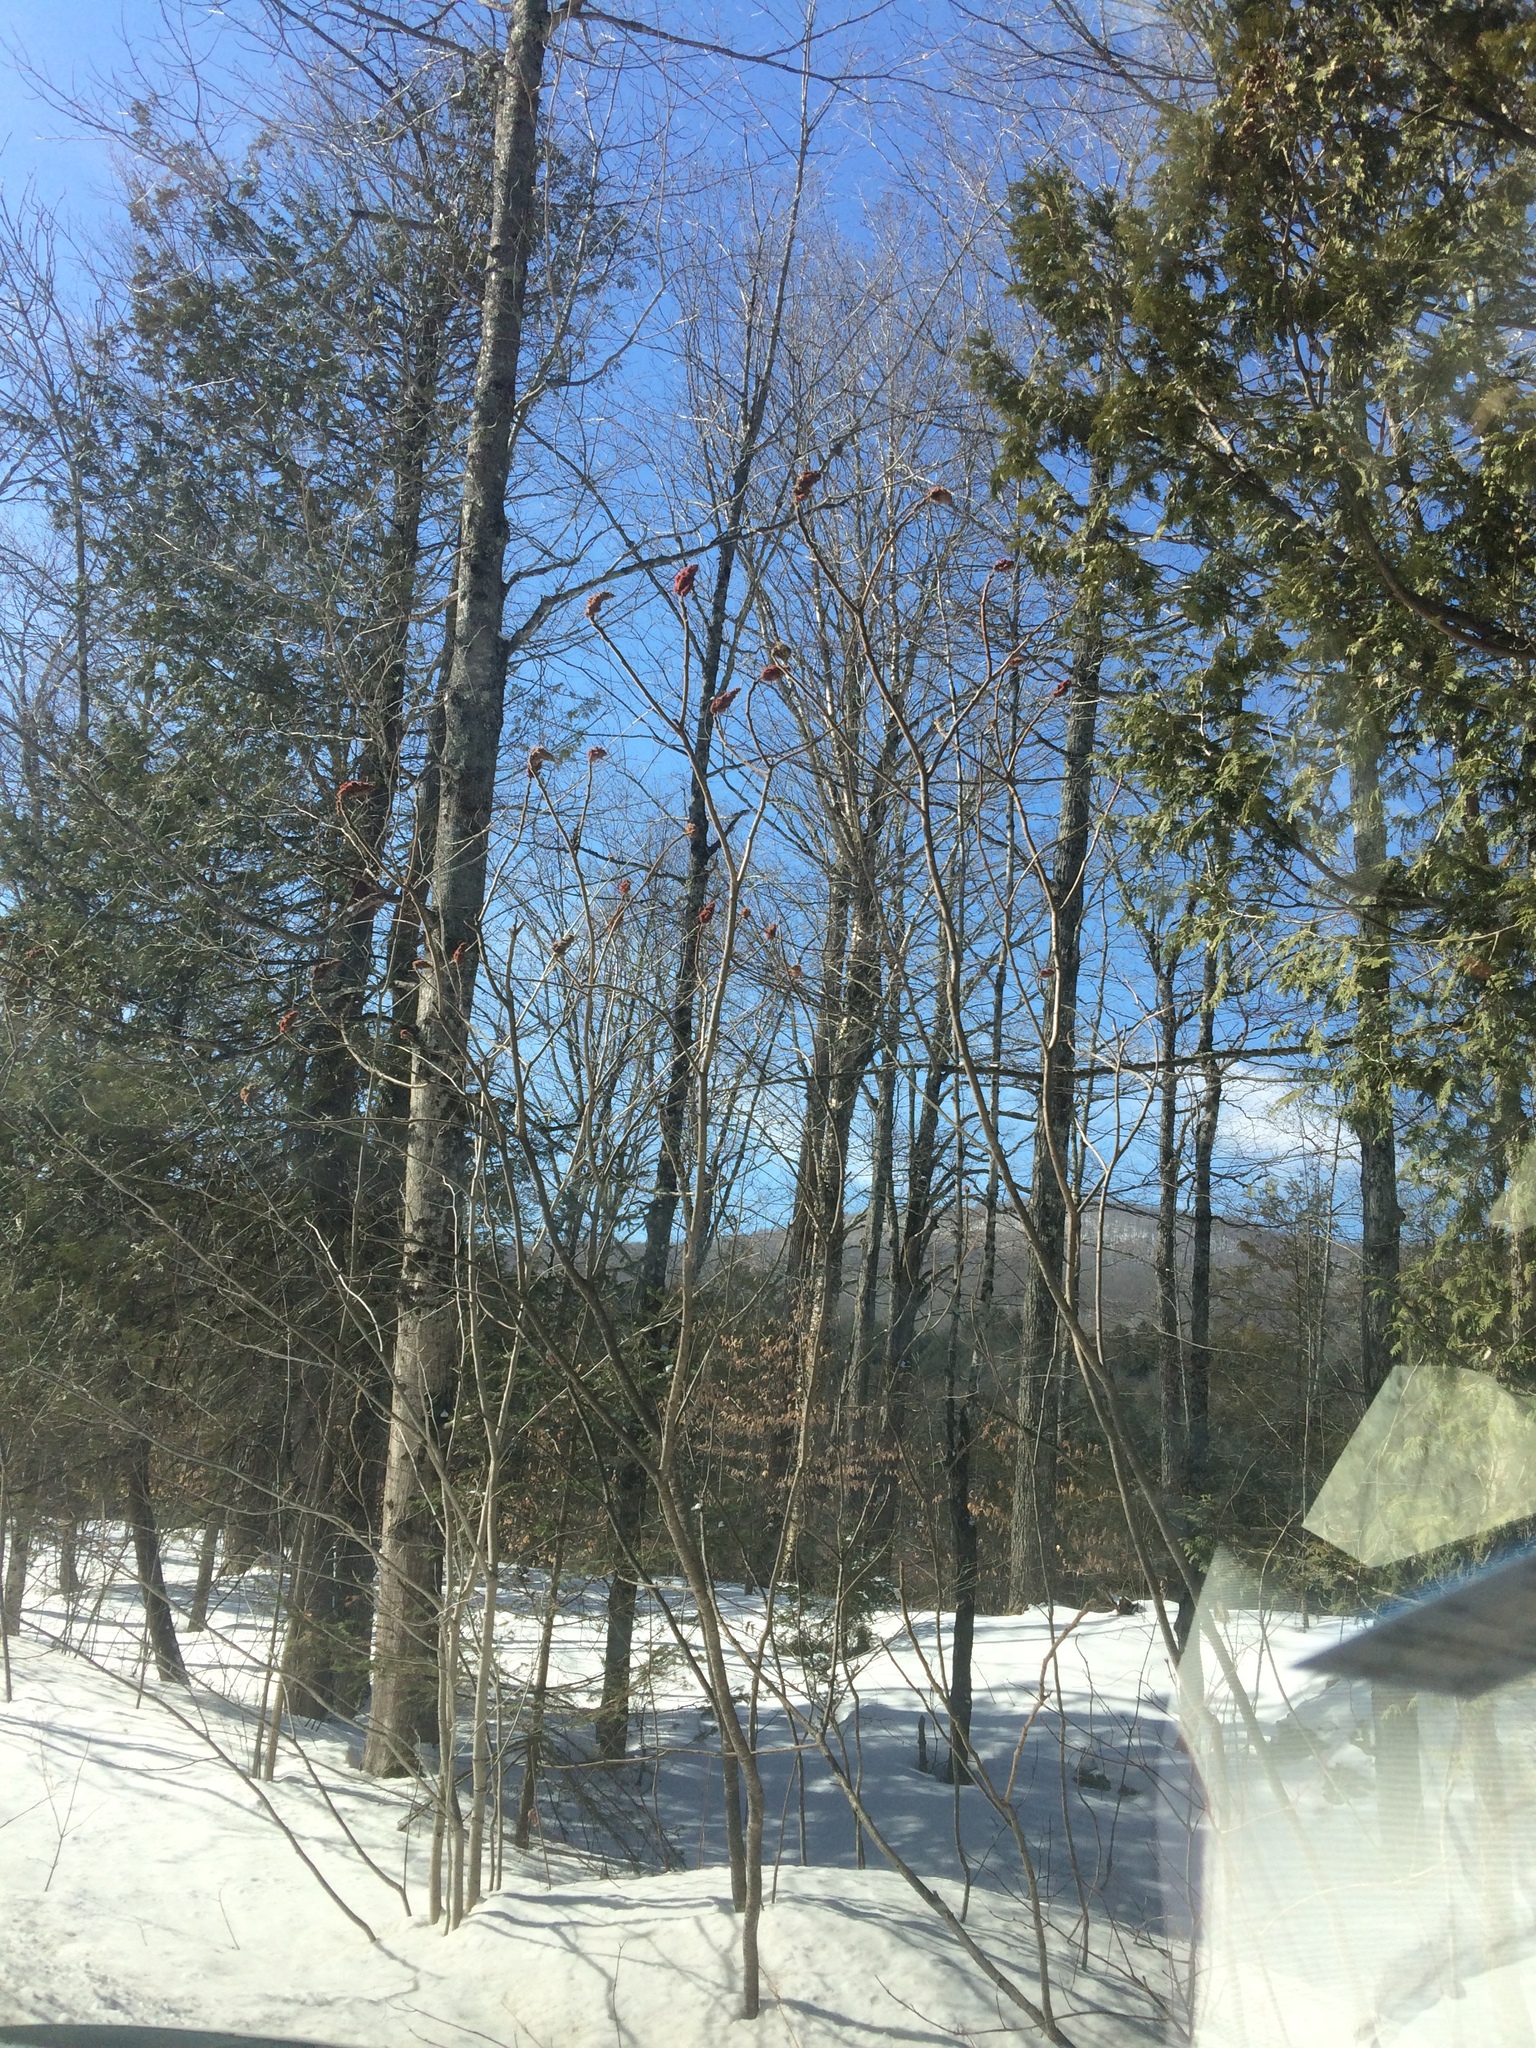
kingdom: Plantae
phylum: Tracheophyta
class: Magnoliopsida
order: Sapindales
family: Anacardiaceae
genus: Rhus
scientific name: Rhus typhina
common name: Staghorn sumac
